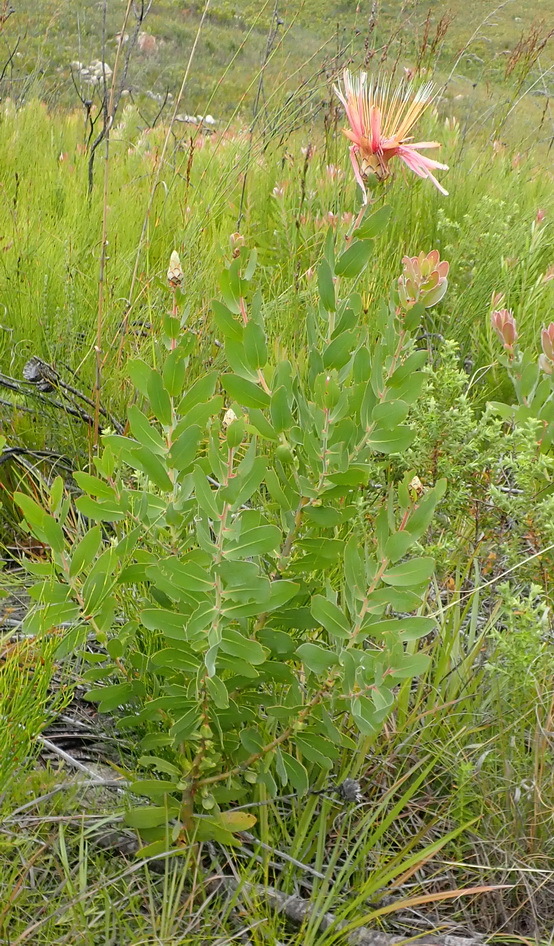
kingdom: Plantae
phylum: Tracheophyta
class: Magnoliopsida
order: Proteales
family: Proteaceae
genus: Protea
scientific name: Protea aurea
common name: Shuttlecock sugarbush
